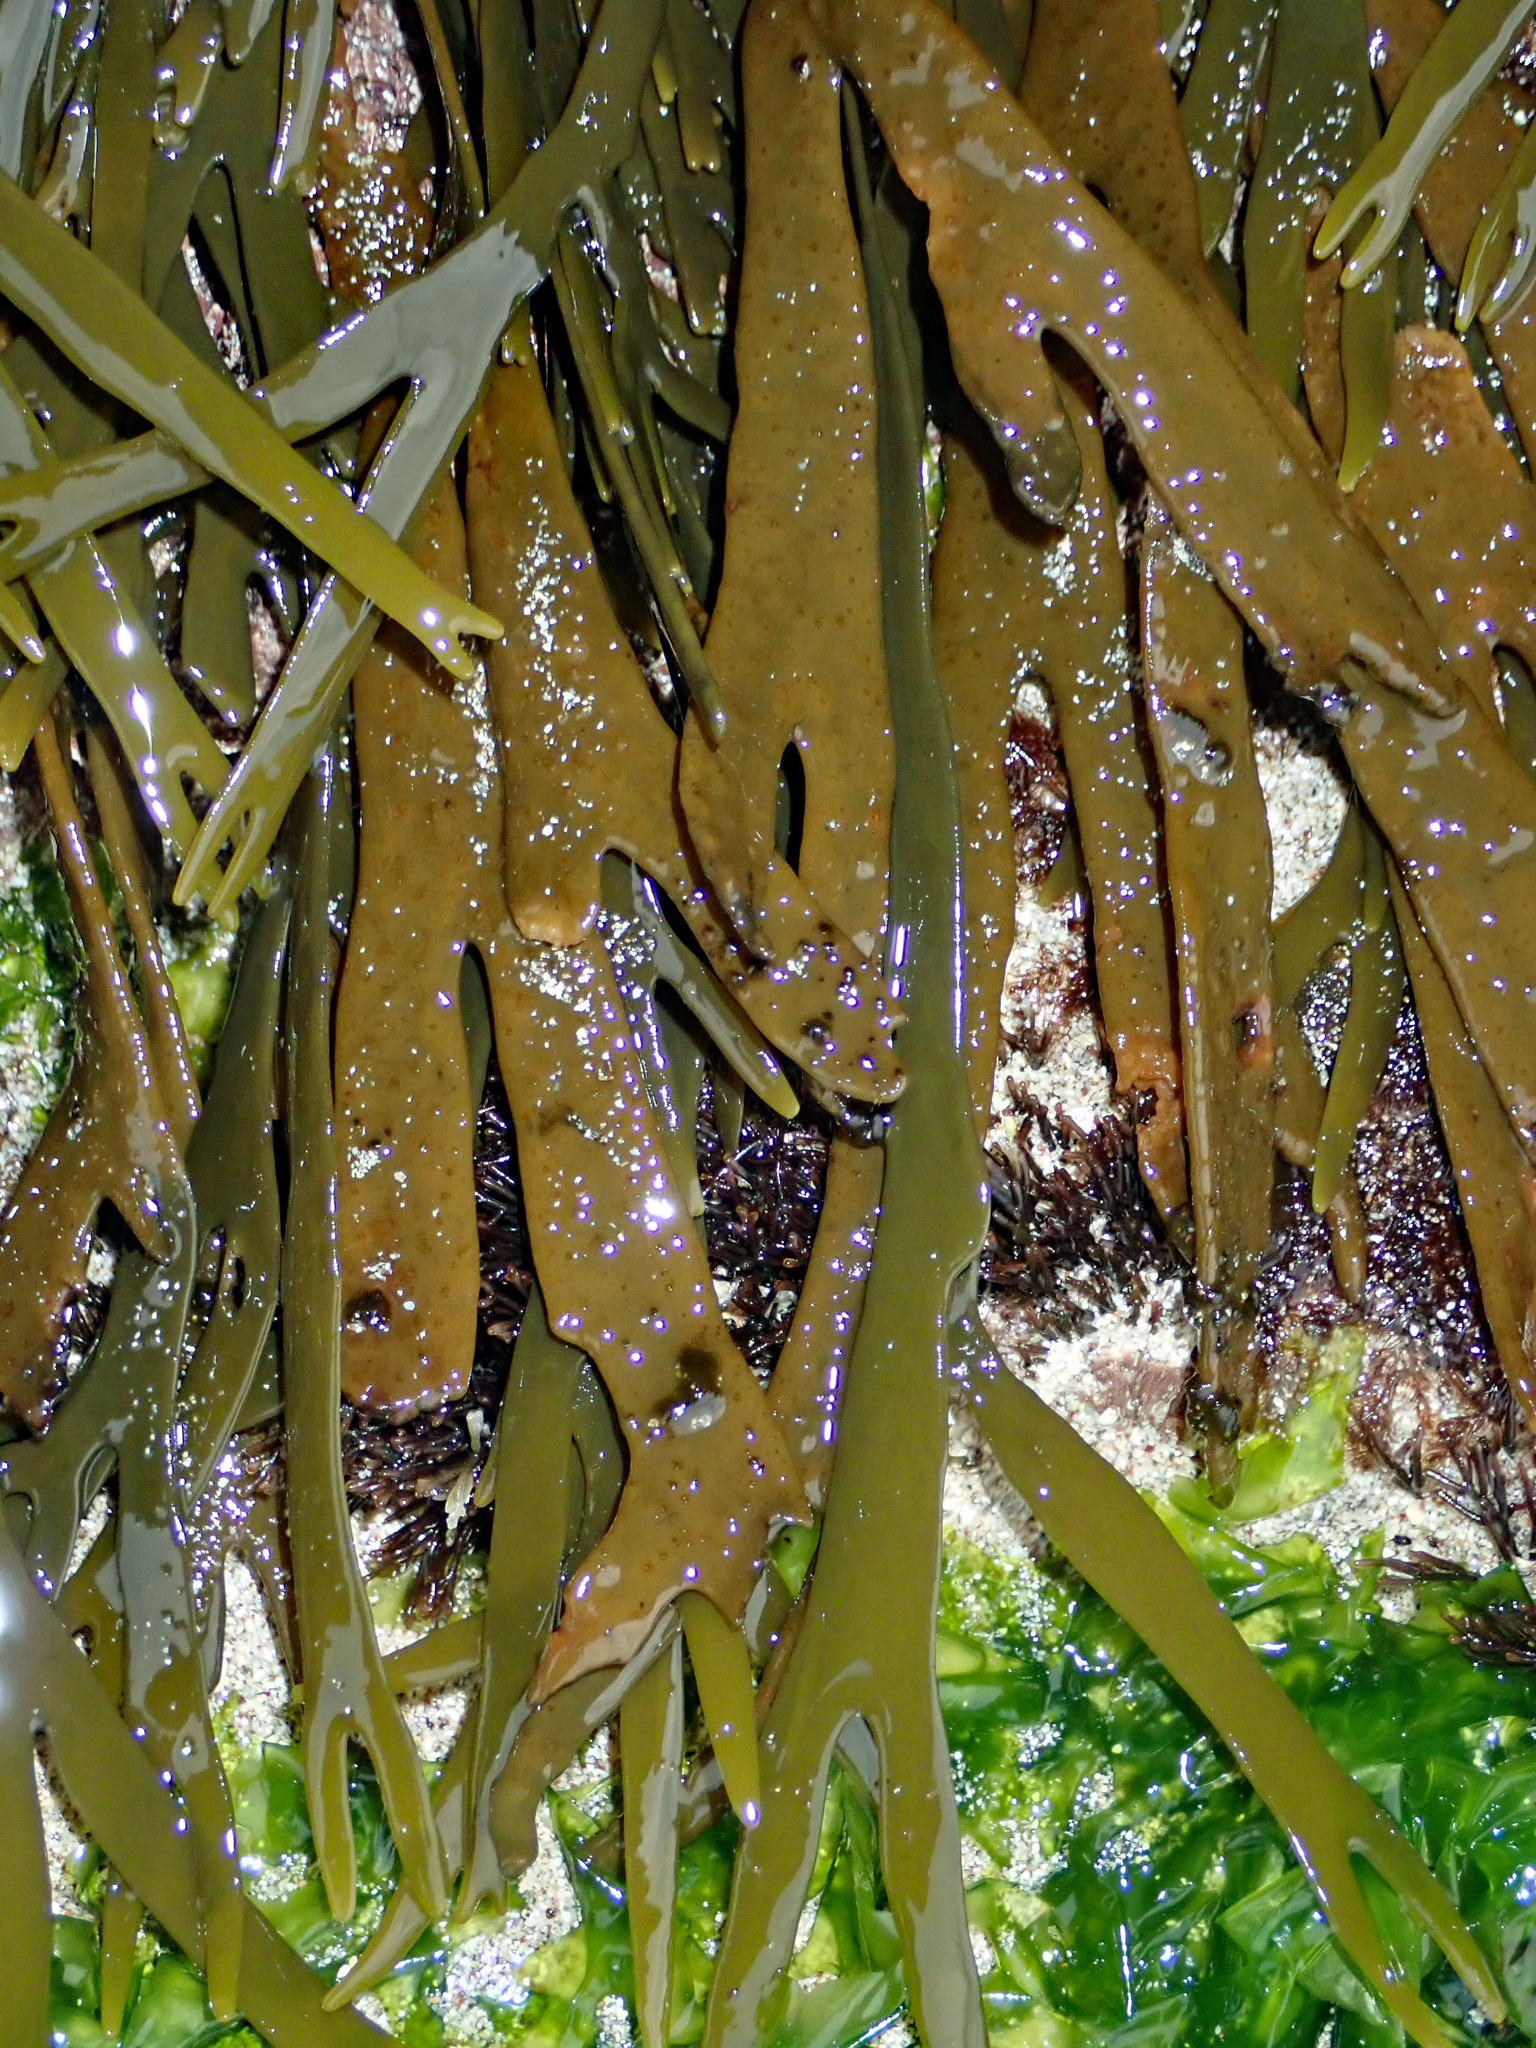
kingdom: Chromista
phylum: Ochrophyta
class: Phaeophyceae
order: Fucales
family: Xiphophoraceae
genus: Xiphophora
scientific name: Xiphophora gladiata
